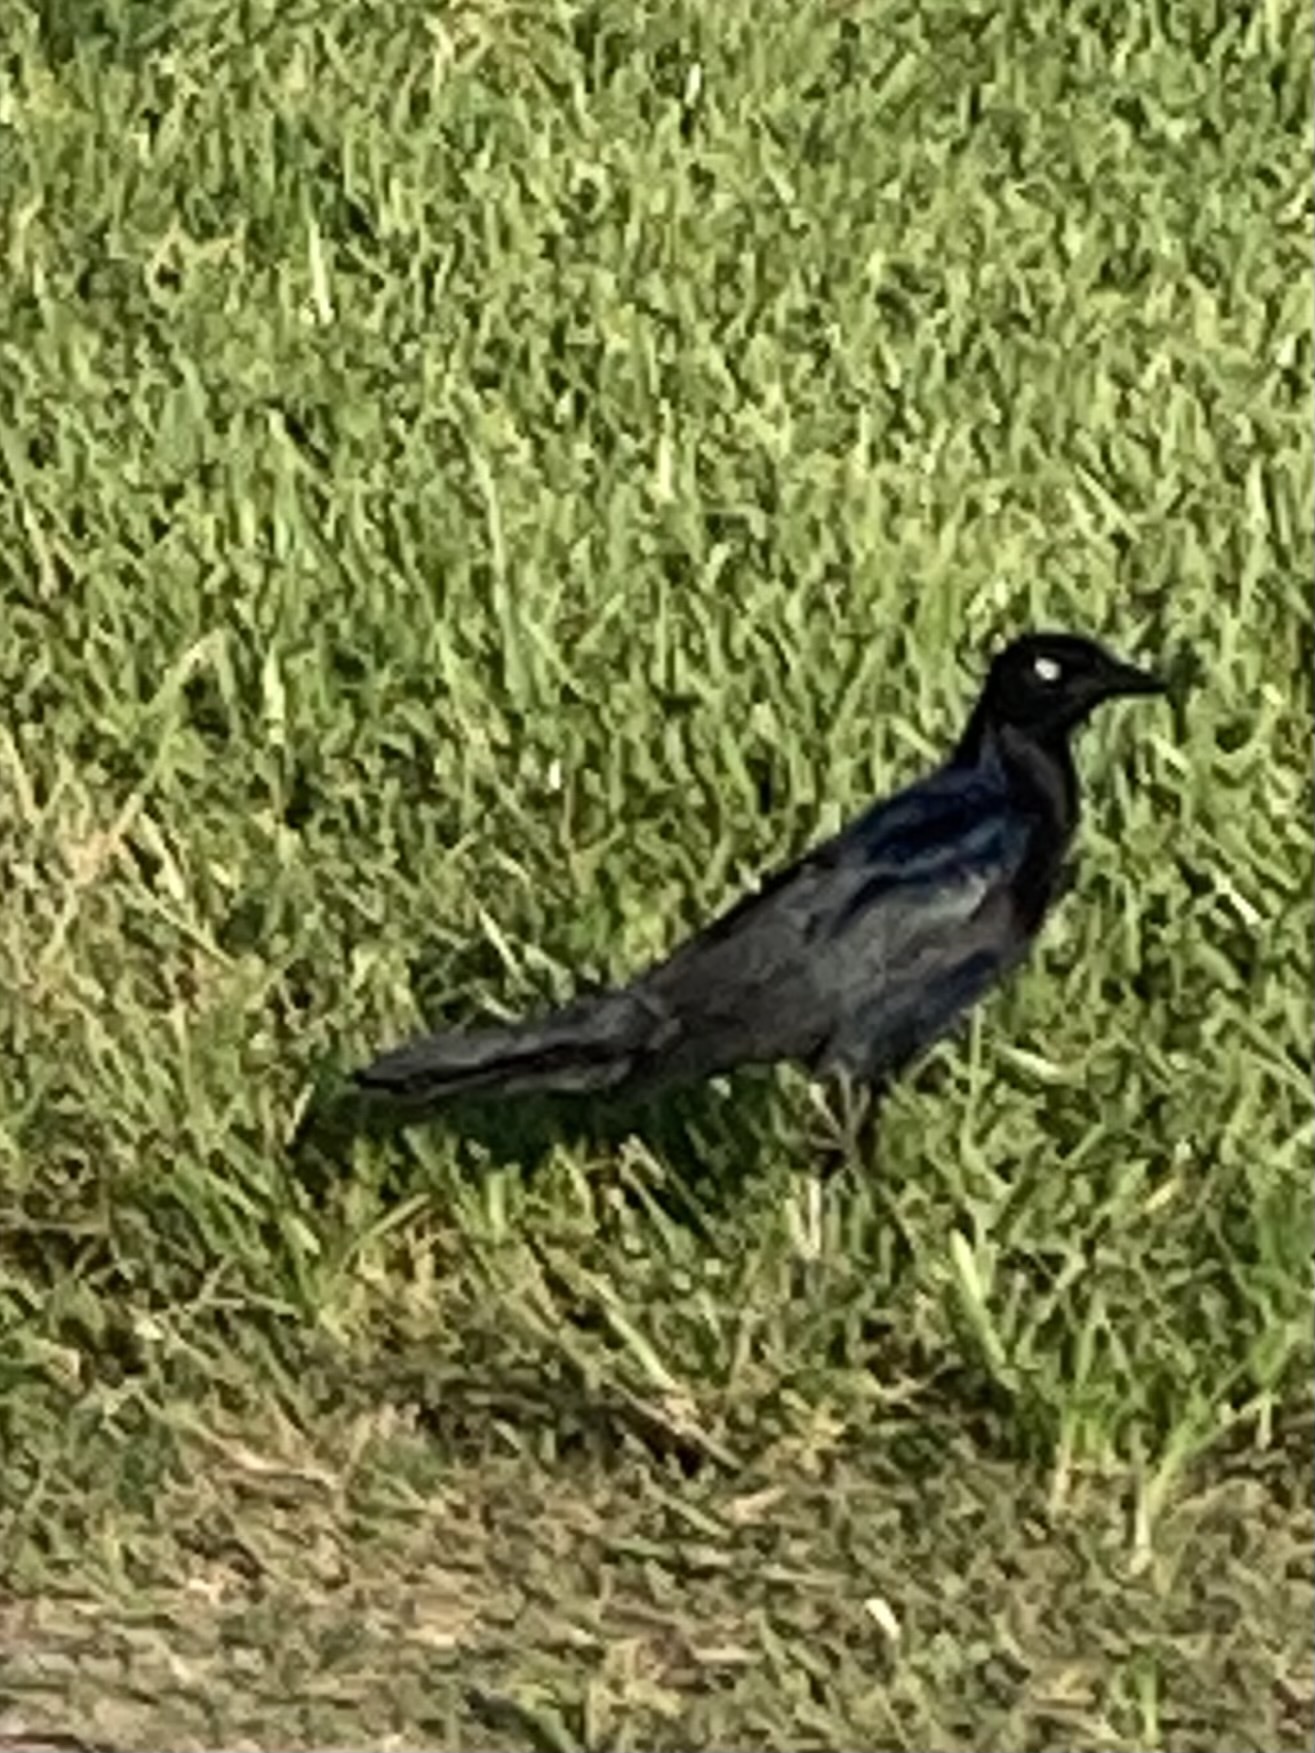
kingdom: Animalia
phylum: Chordata
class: Aves
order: Passeriformes
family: Icteridae
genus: Quiscalus
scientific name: Quiscalus mexicanus
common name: Great-tailed grackle
